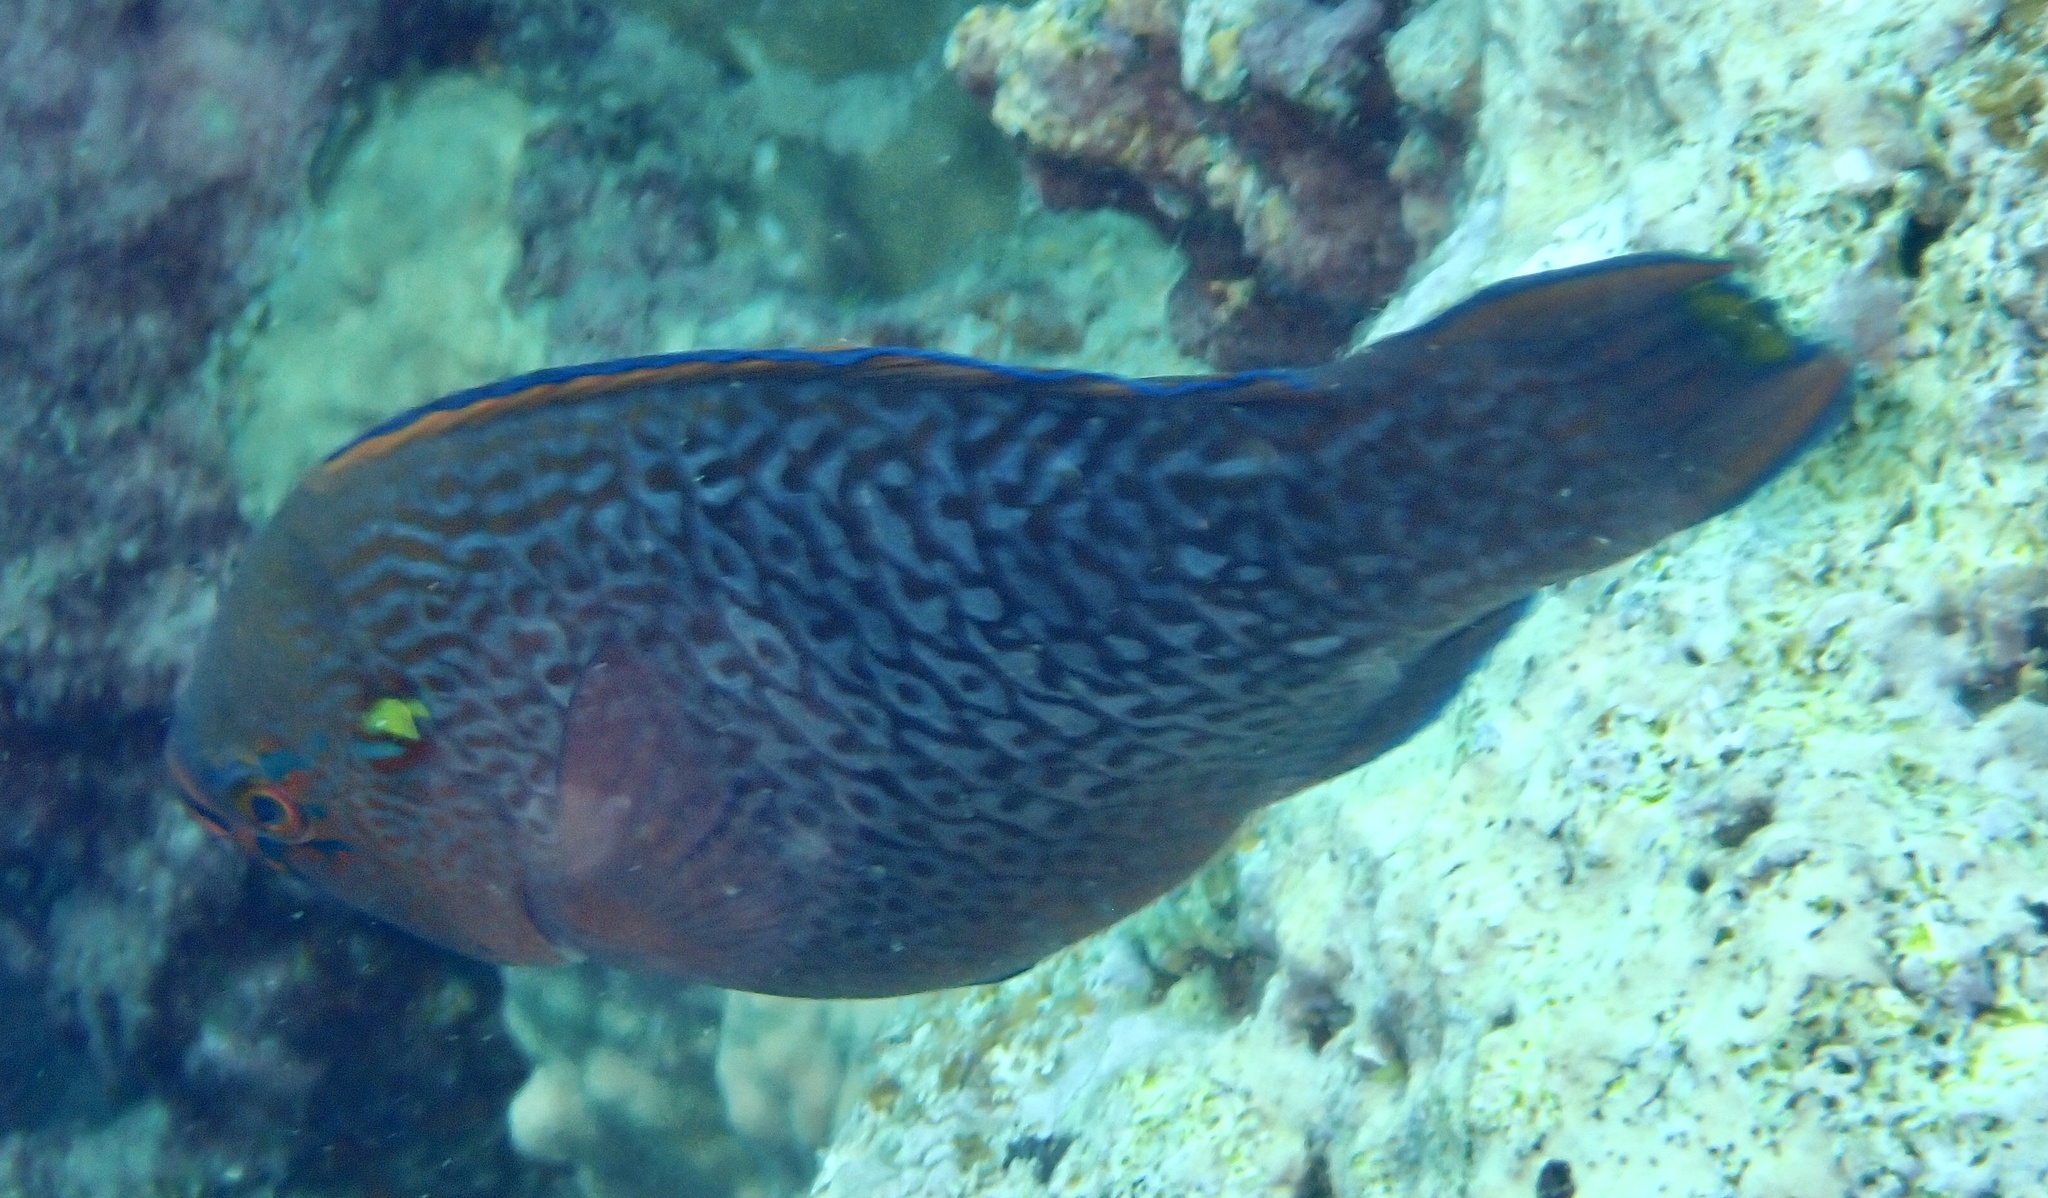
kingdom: Animalia
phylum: Chordata
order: Perciformes
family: Scaridae
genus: Scarus
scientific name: Scarus niger
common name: Dusky parrotfish
